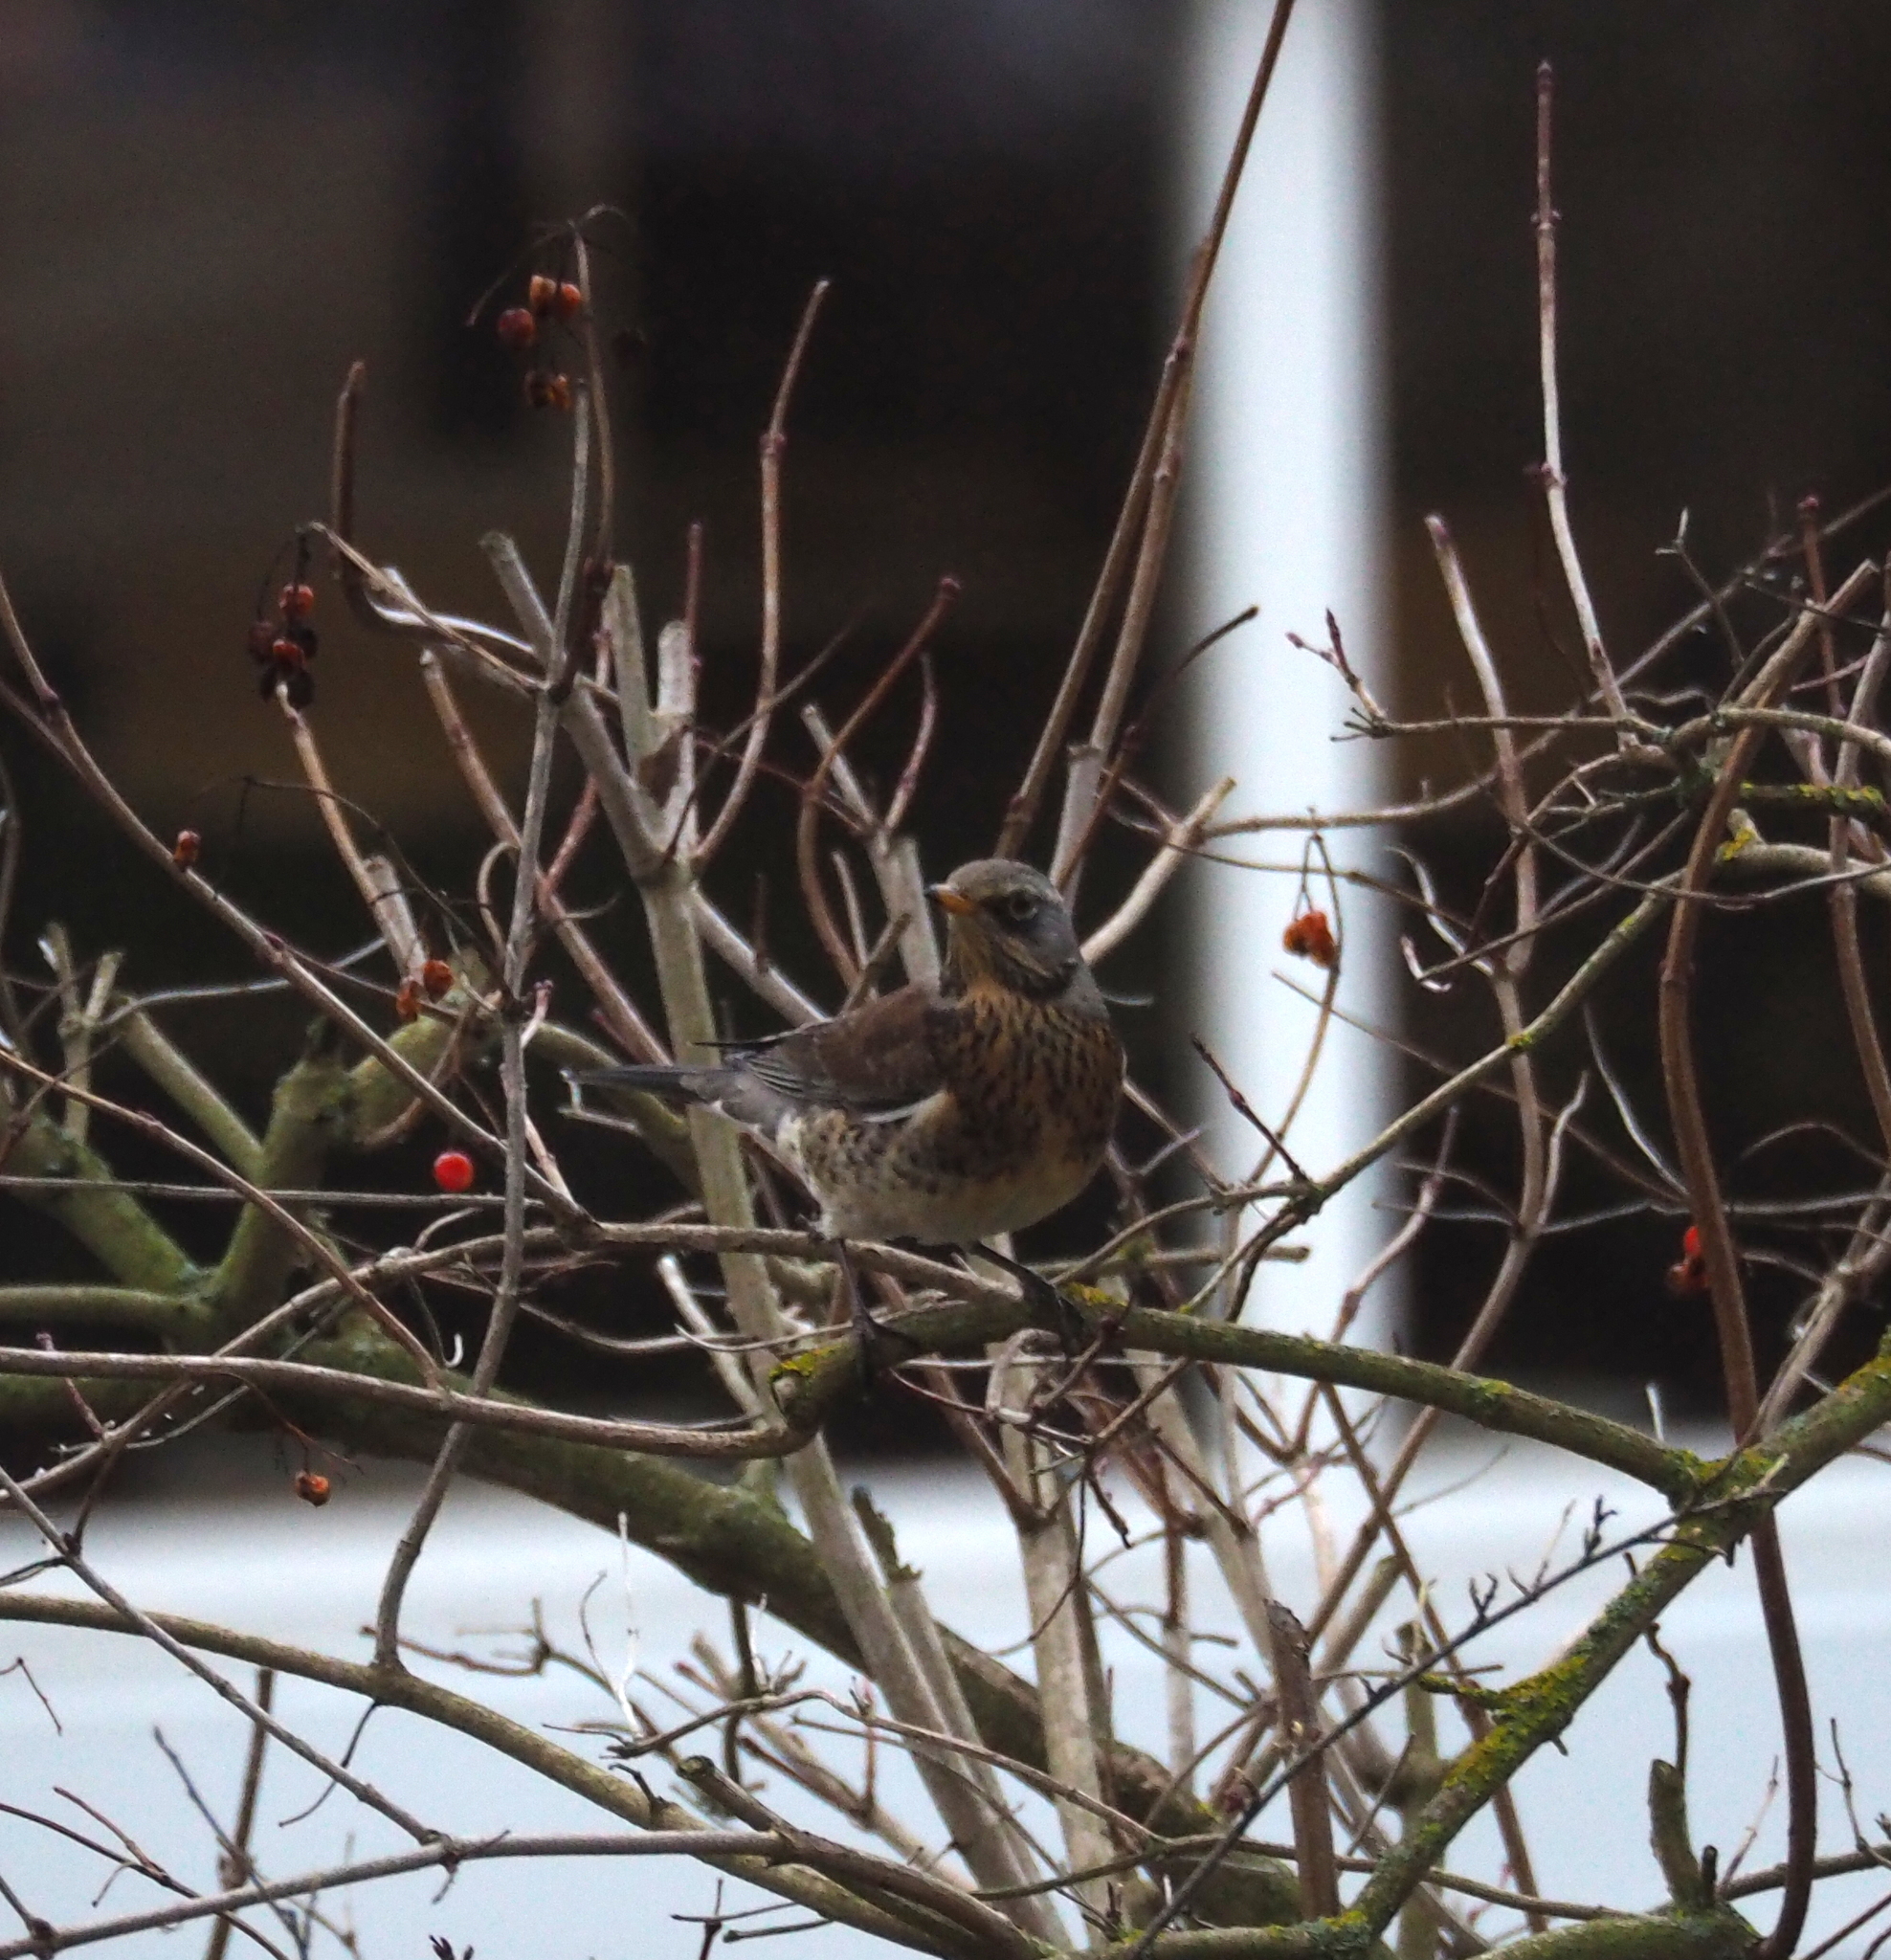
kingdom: Animalia
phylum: Chordata
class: Aves
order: Passeriformes
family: Turdidae
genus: Turdus
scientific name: Turdus pilaris
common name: Fieldfare
